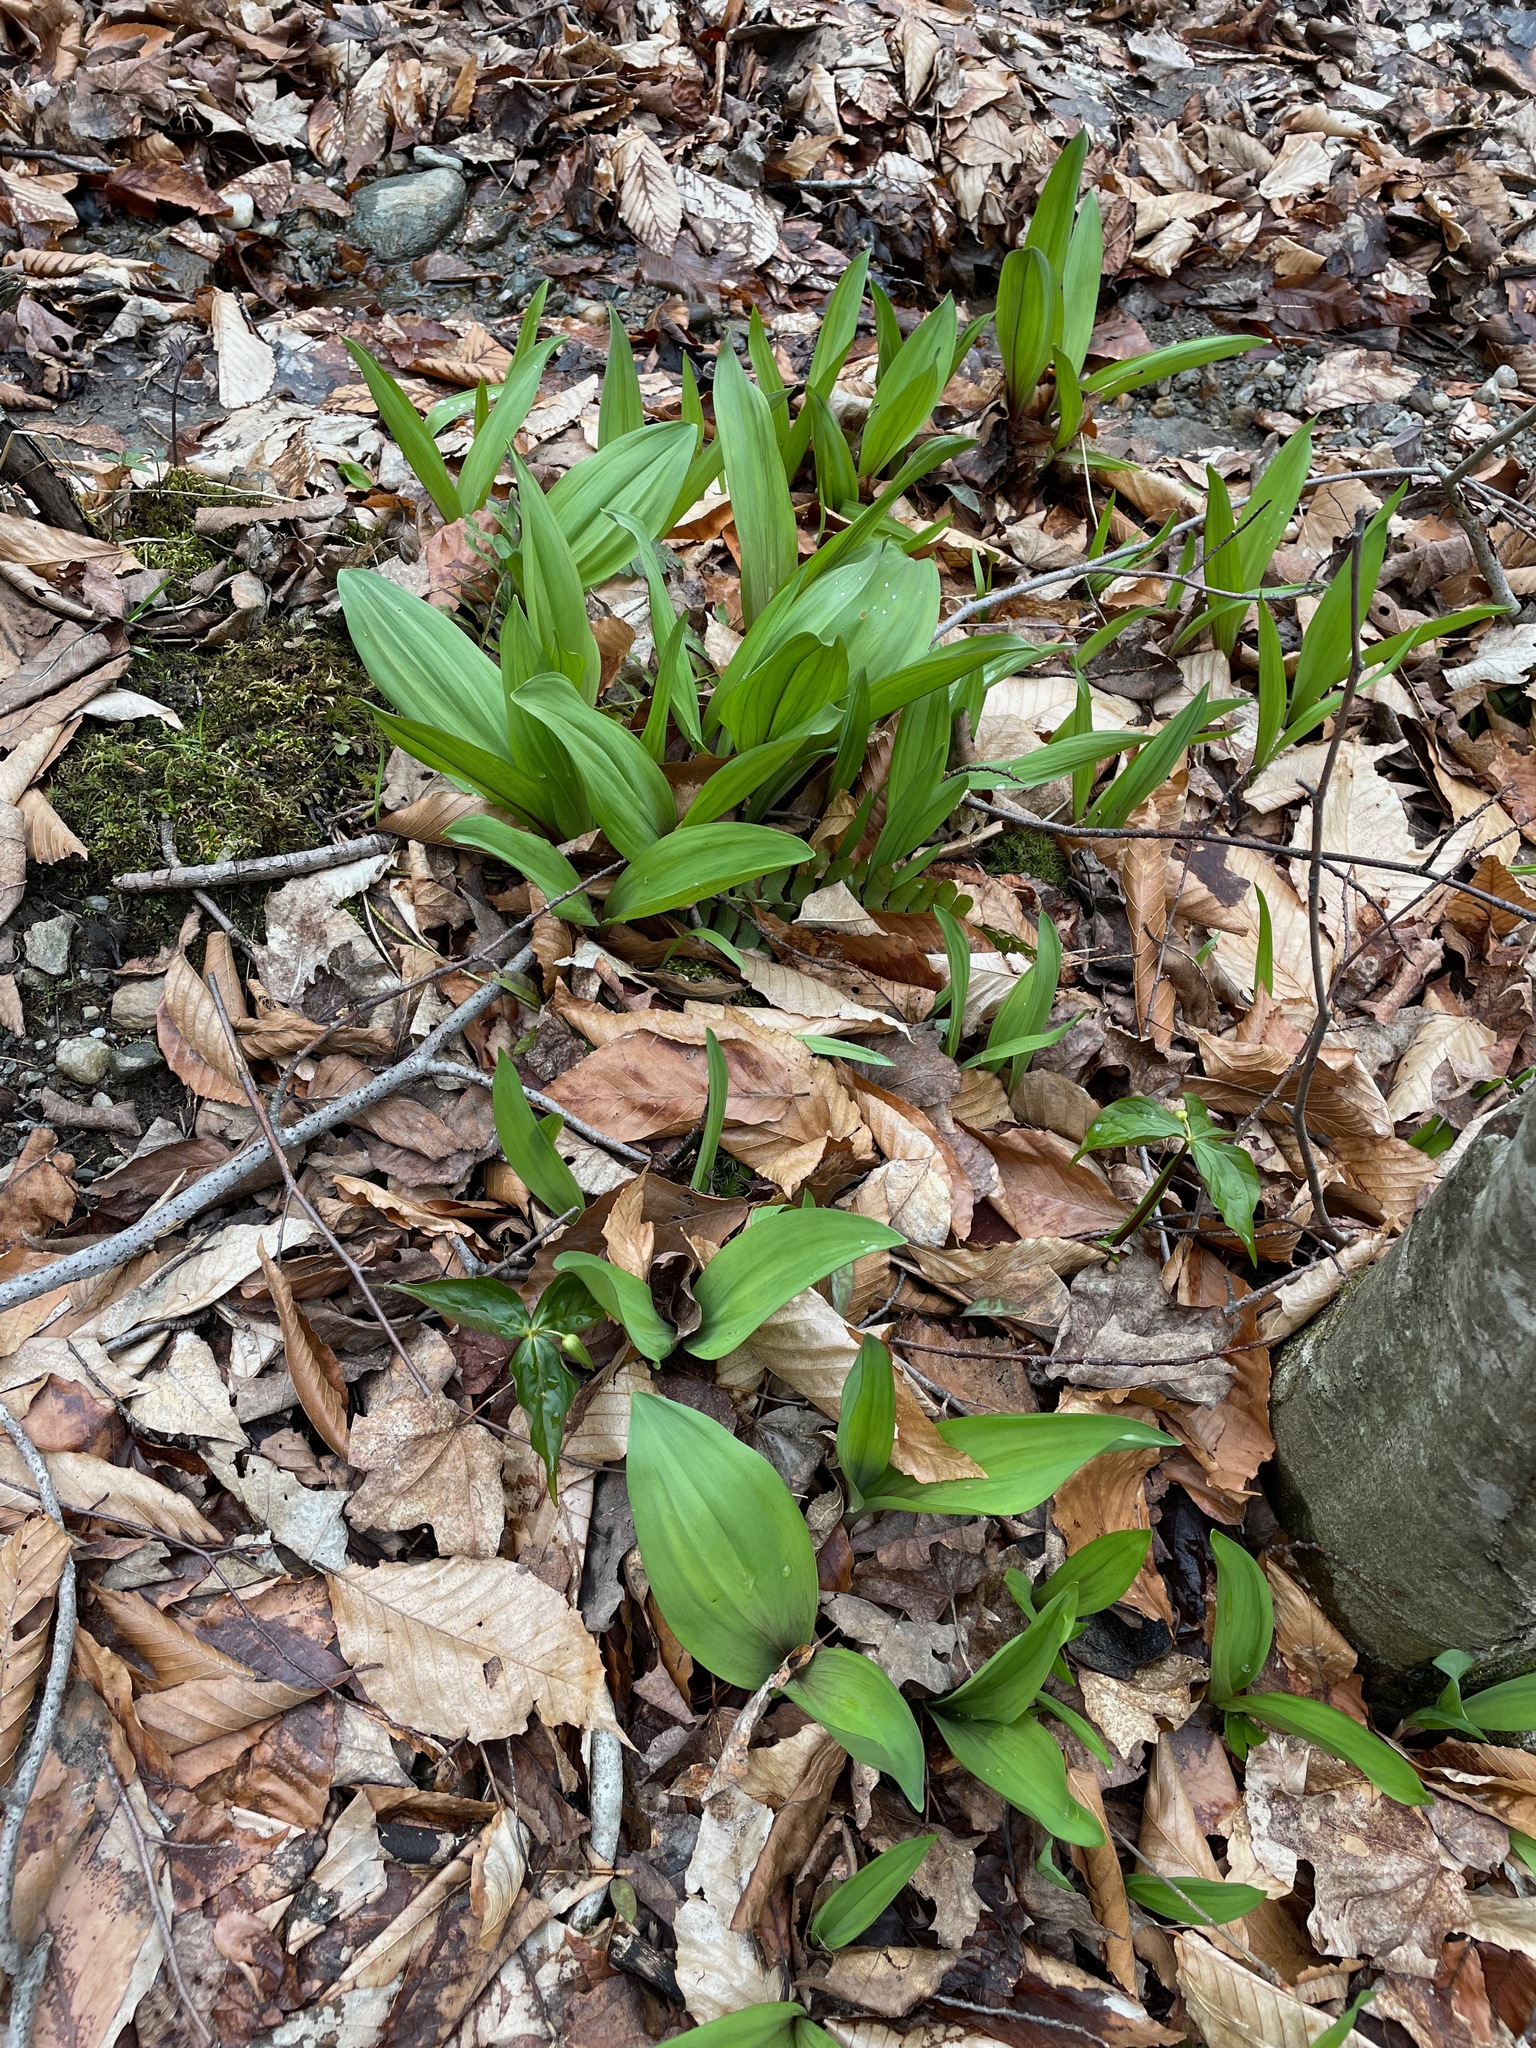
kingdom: Plantae
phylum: Tracheophyta
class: Liliopsida
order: Asparagales
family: Amaryllidaceae
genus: Allium
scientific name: Allium tricoccum
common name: Ramp
